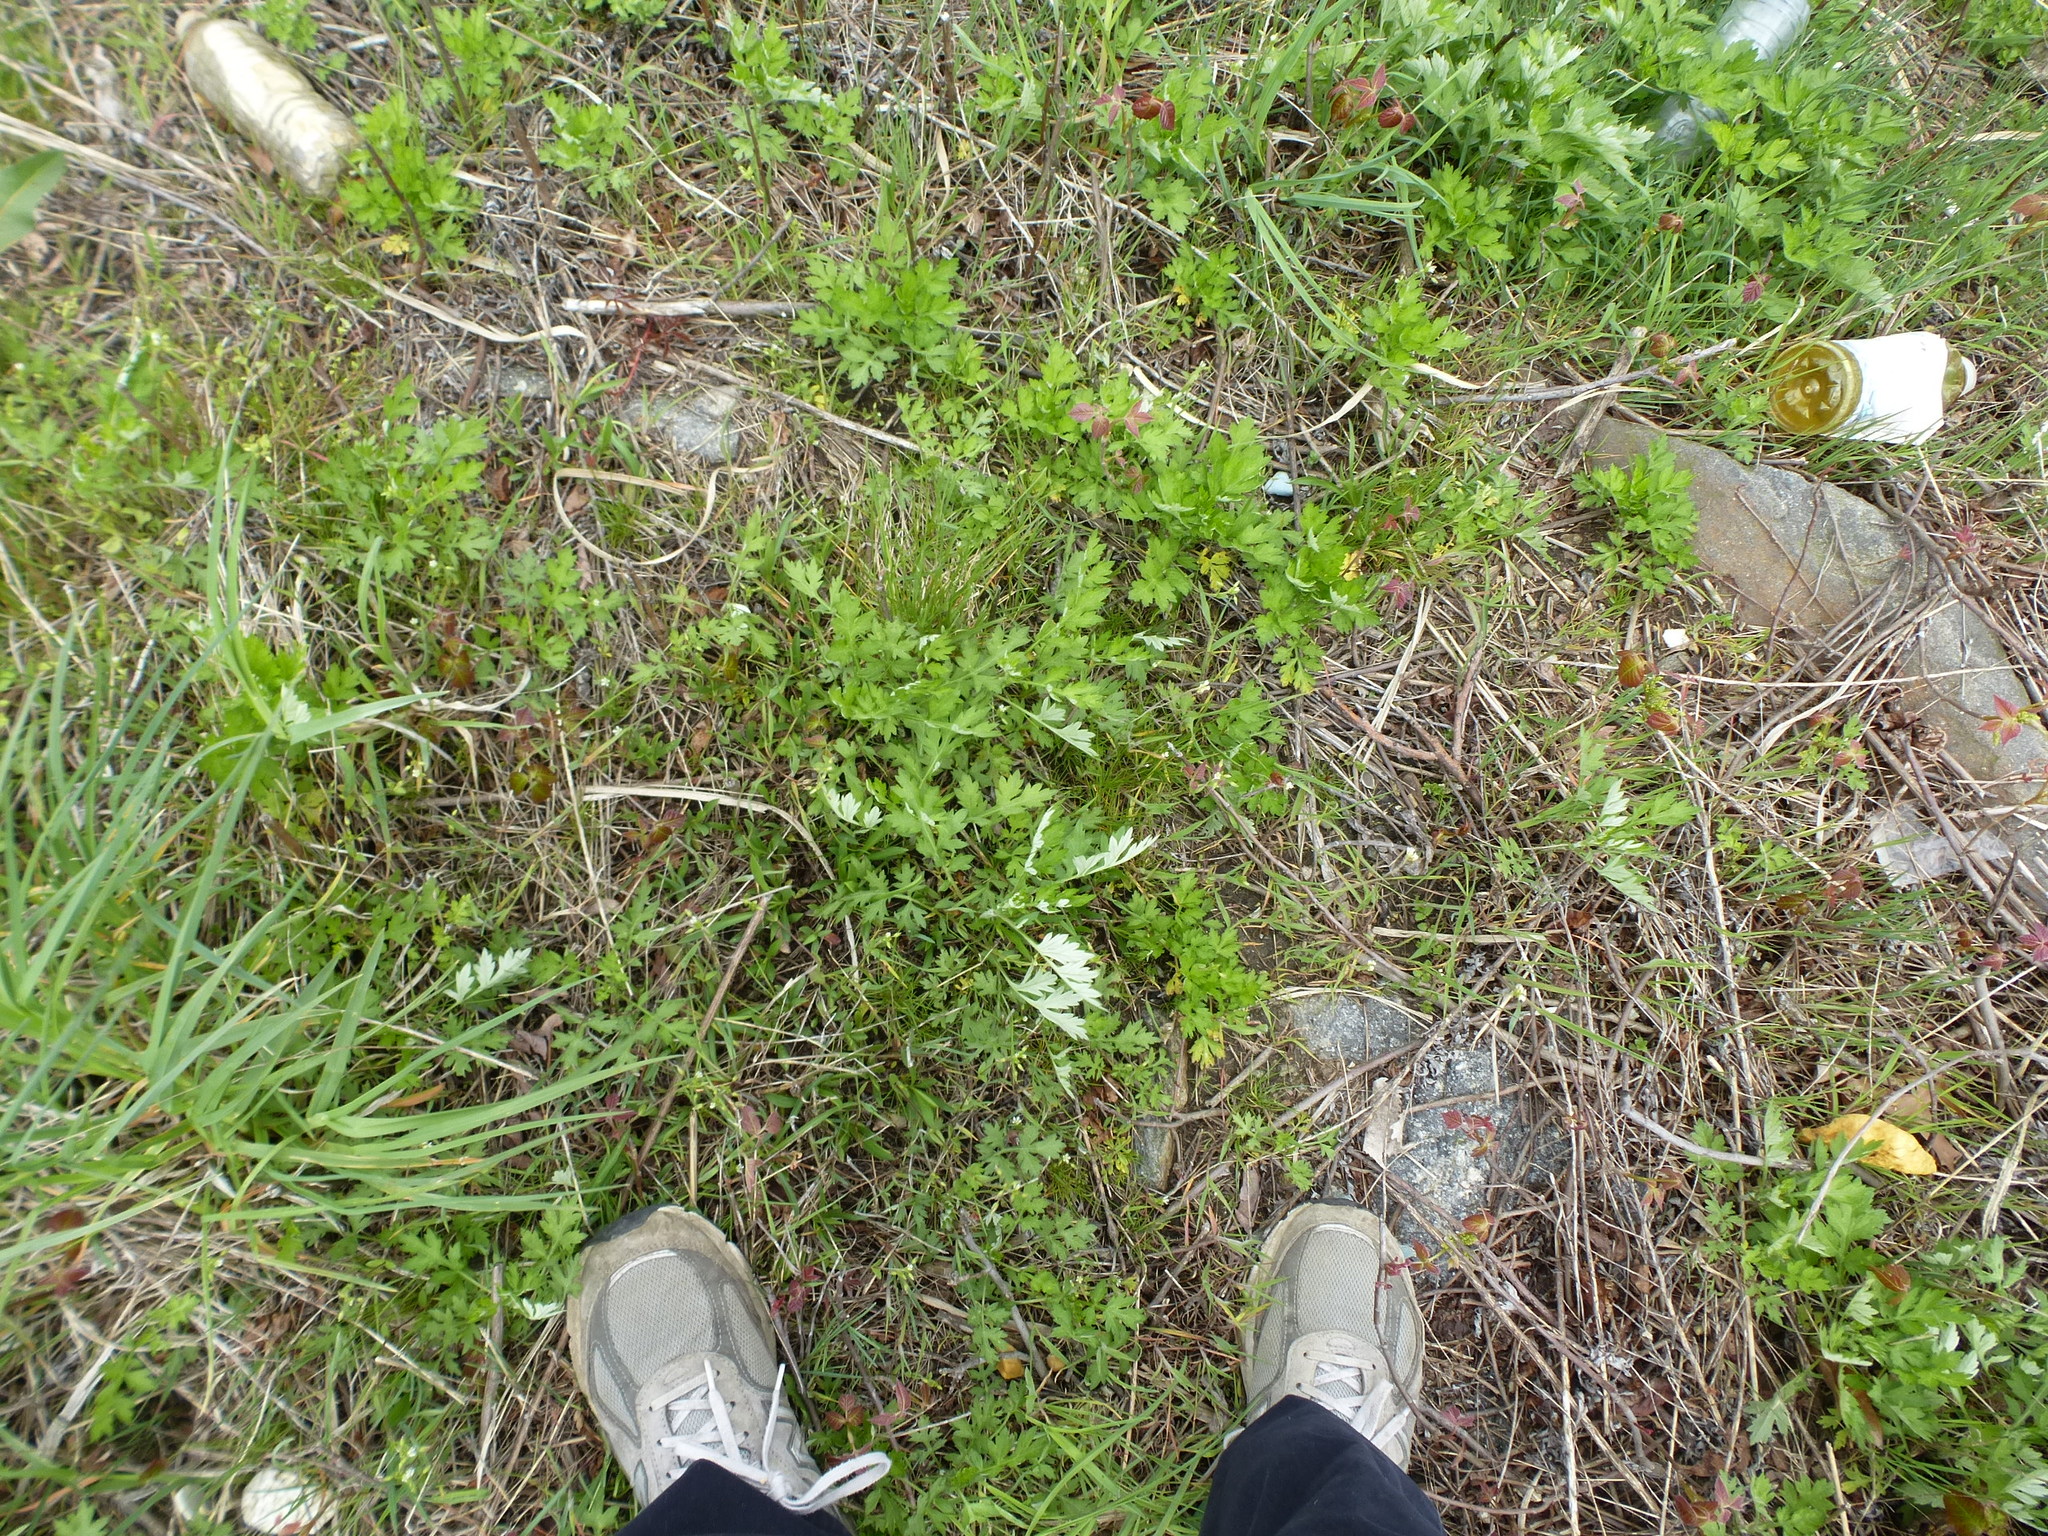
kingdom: Plantae
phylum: Tracheophyta
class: Magnoliopsida
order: Asterales
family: Asteraceae
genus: Artemisia
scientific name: Artemisia vulgaris
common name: Mugwort
